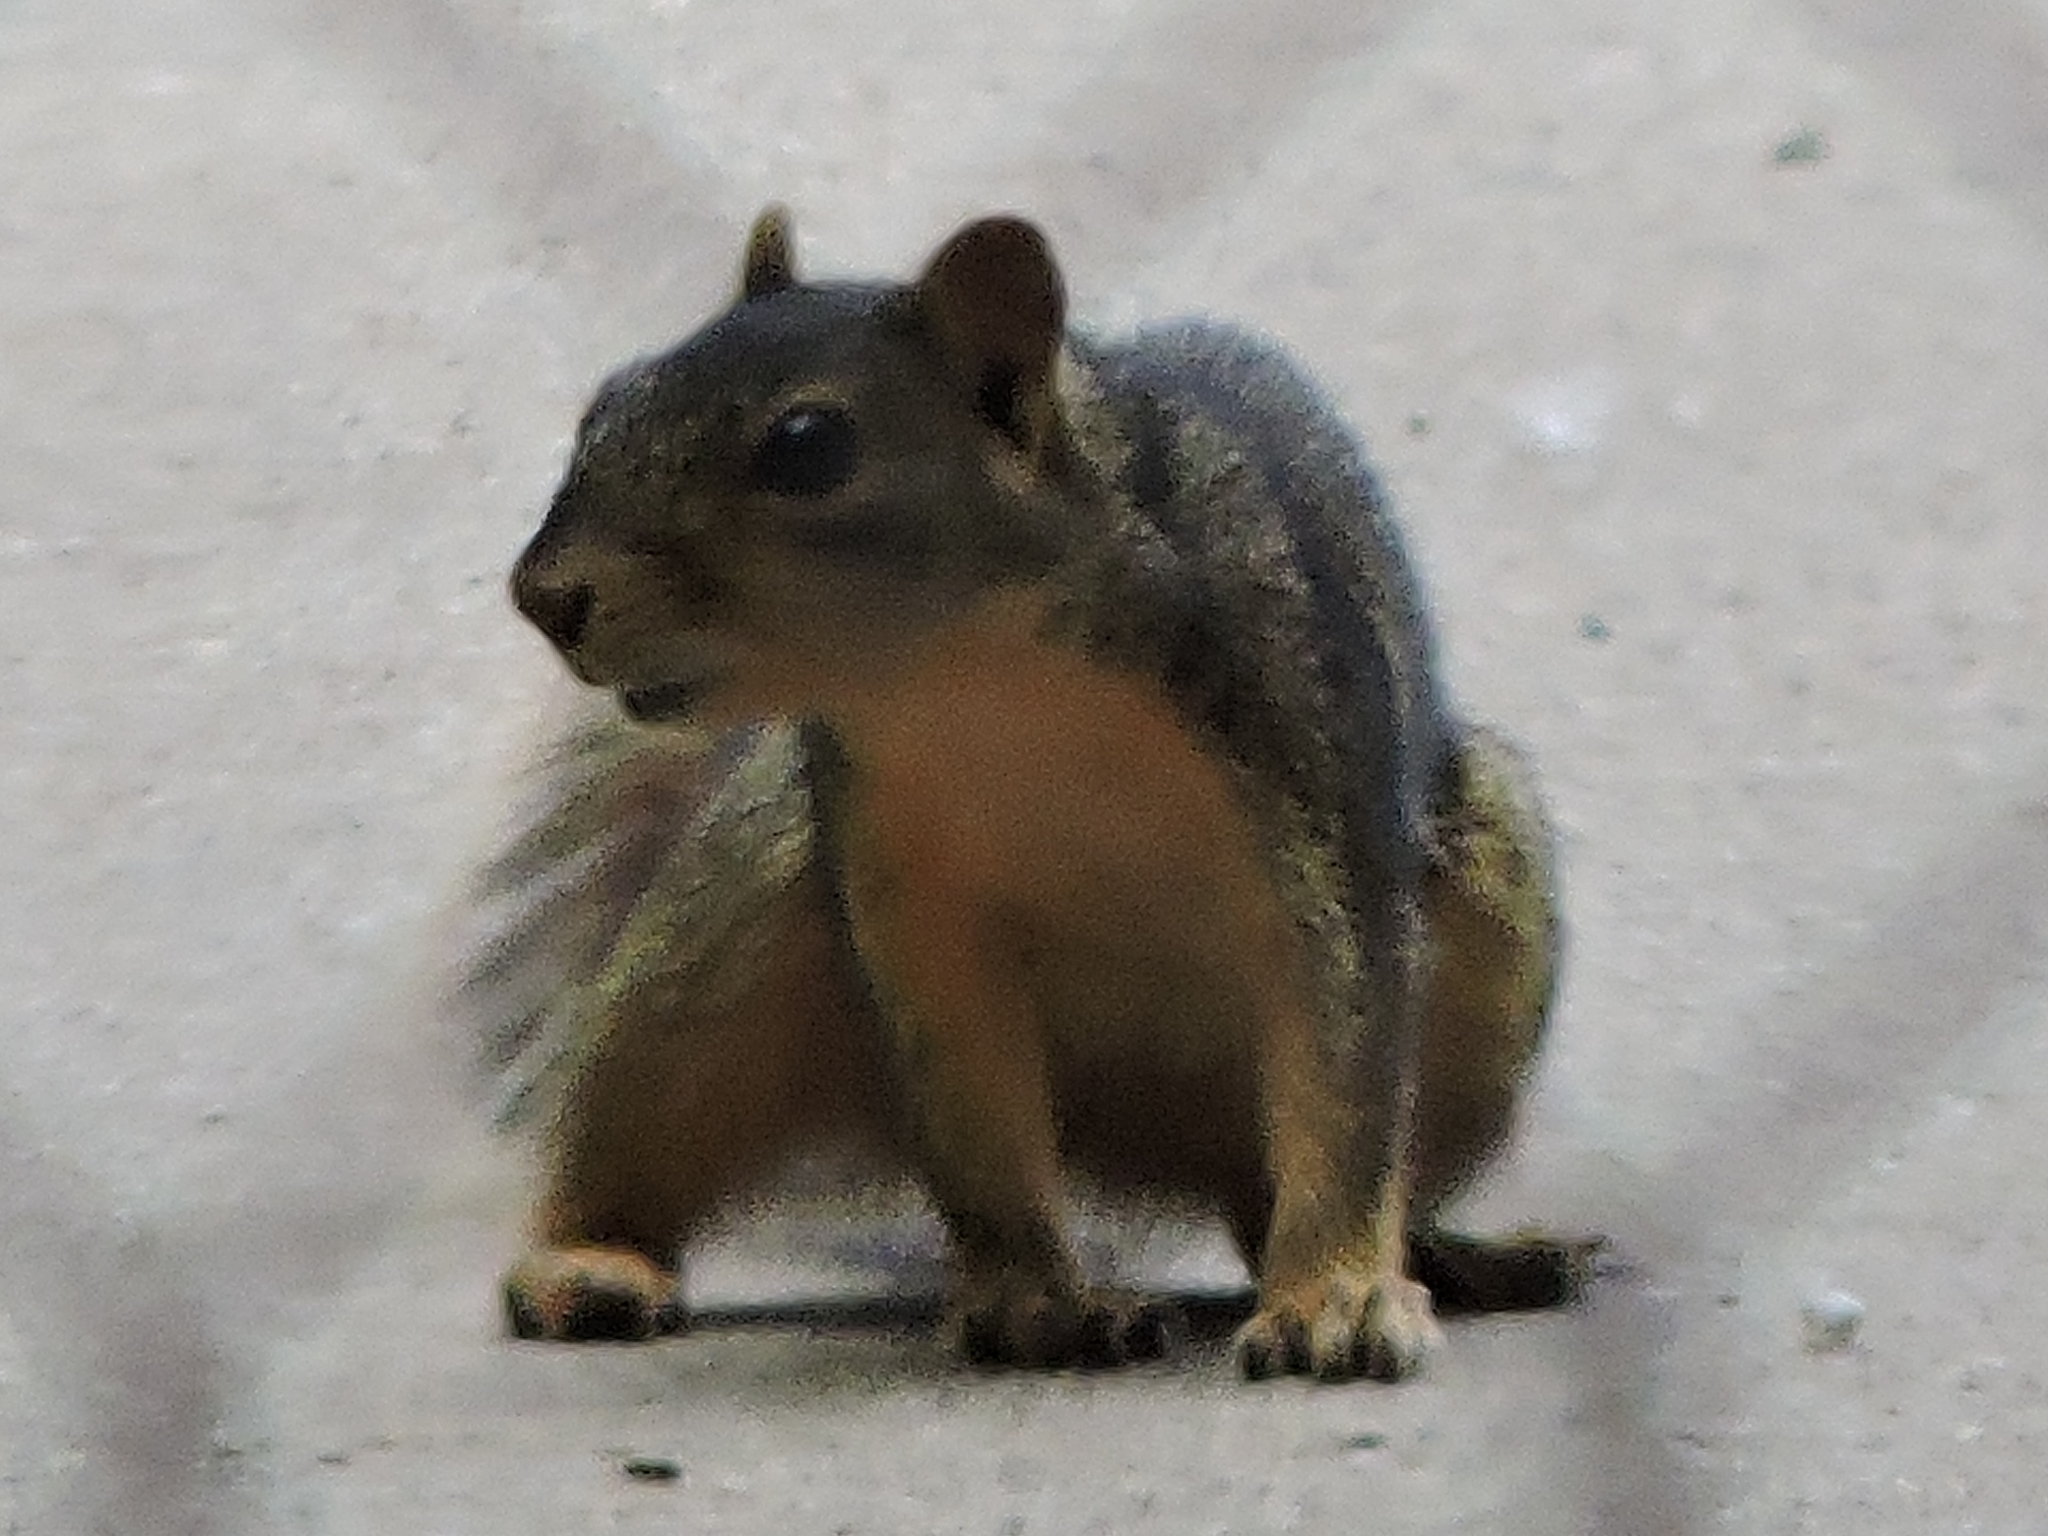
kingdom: Animalia
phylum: Chordata
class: Mammalia
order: Rodentia
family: Sciuridae
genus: Sciurus
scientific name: Sciurus niger
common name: Fox squirrel
